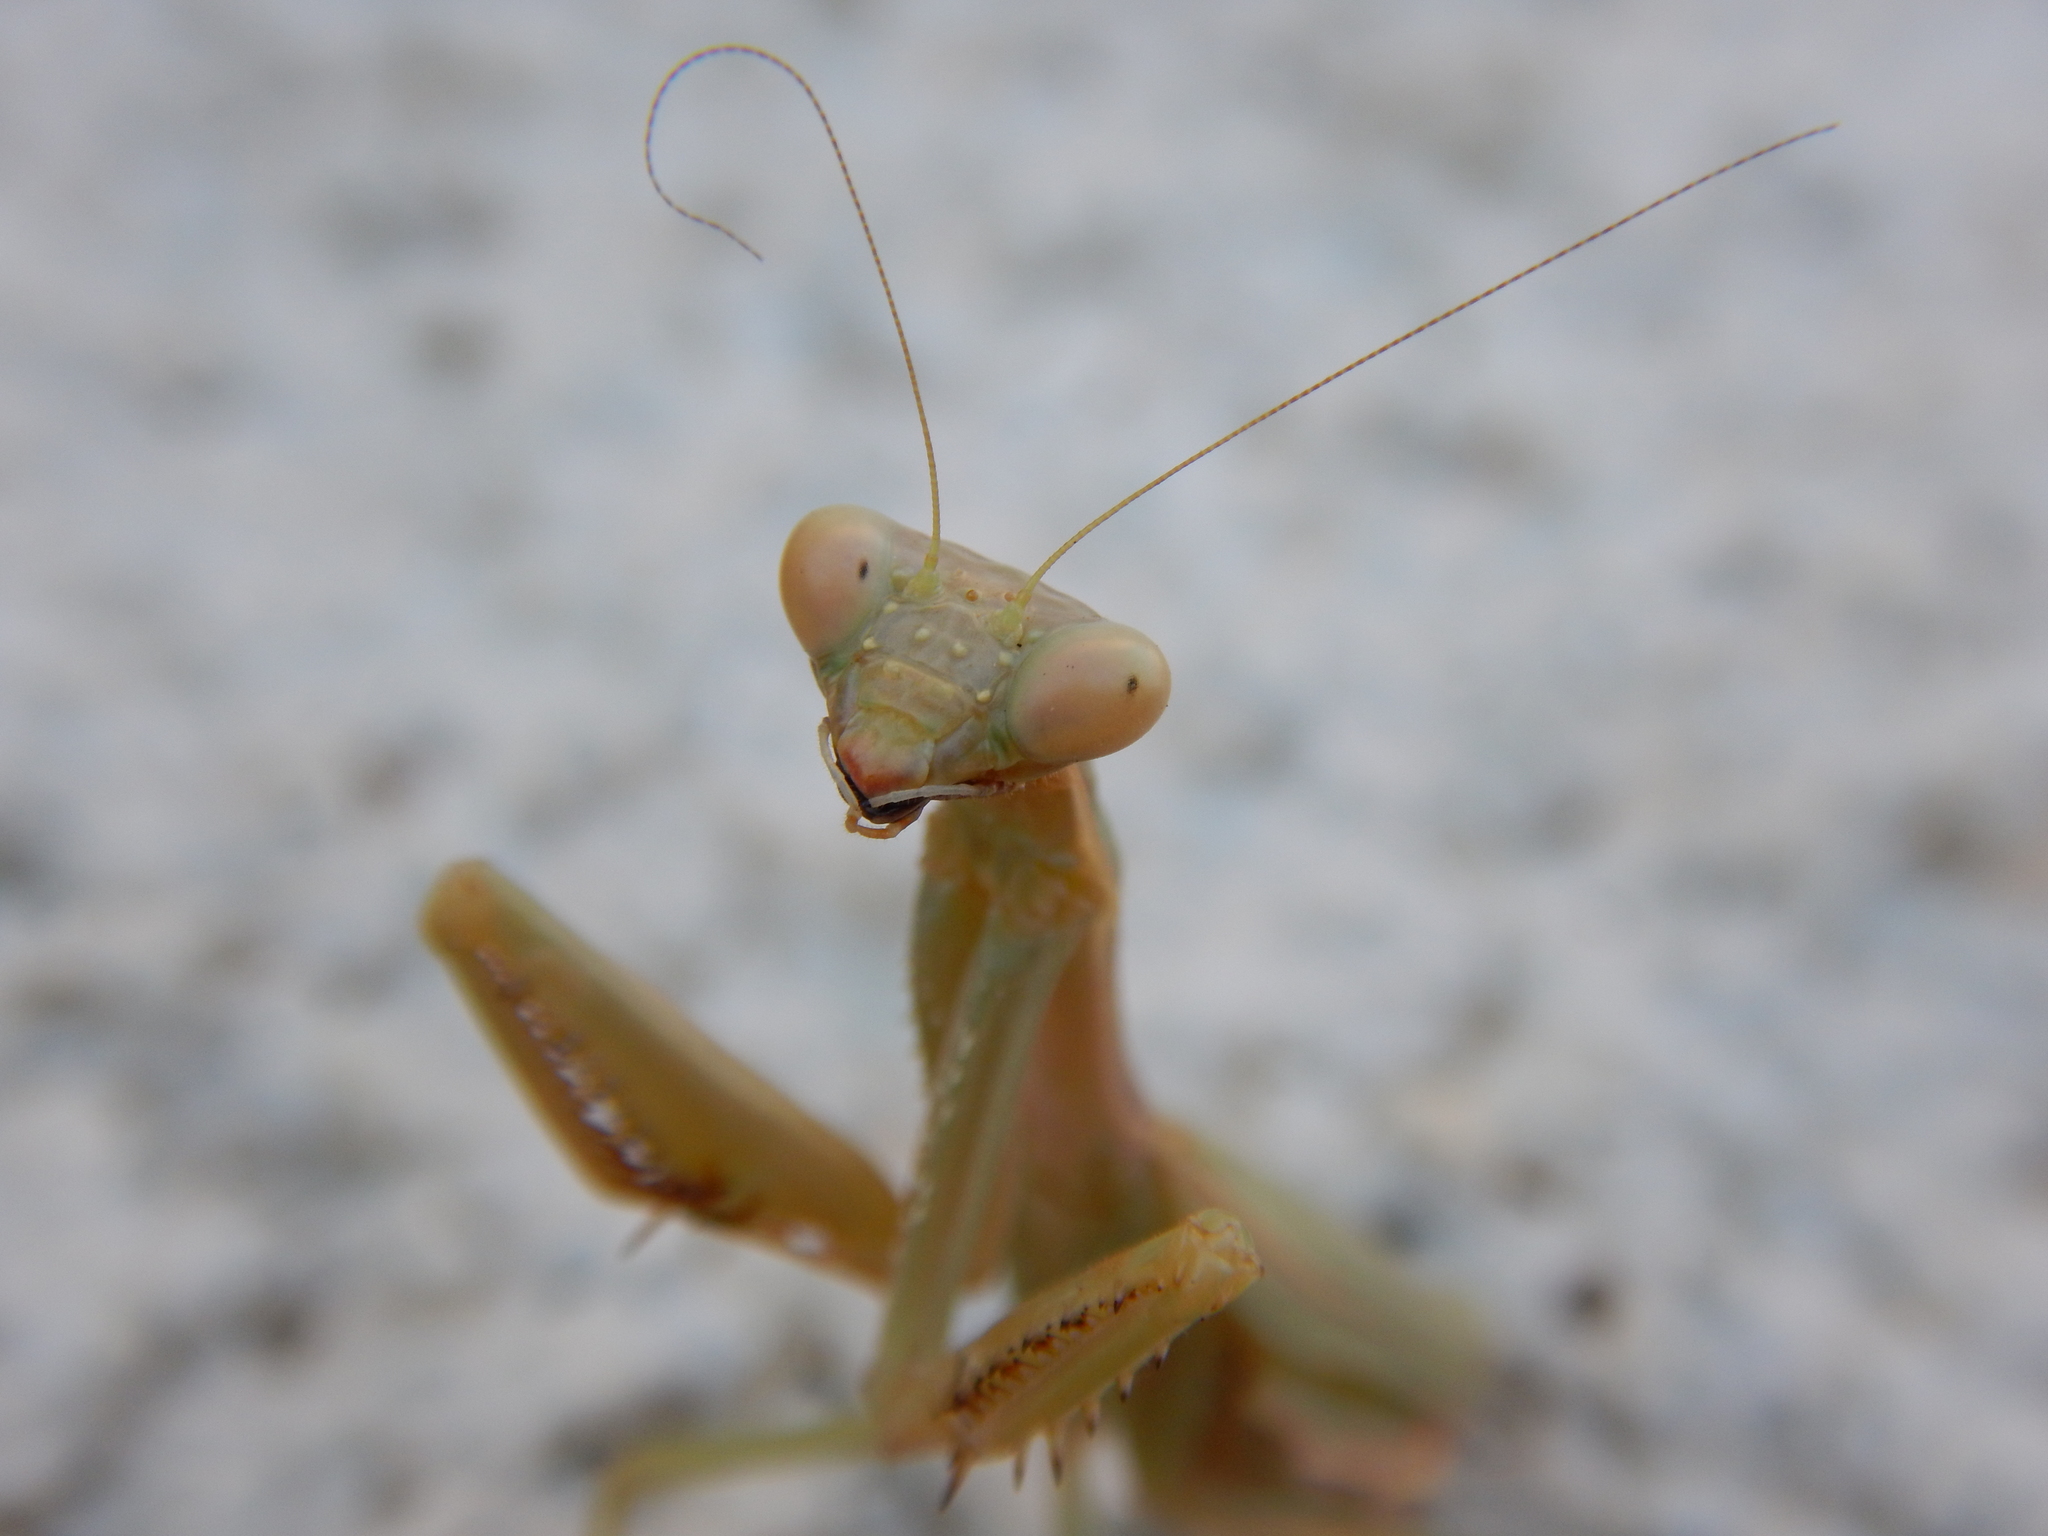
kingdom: Animalia
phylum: Arthropoda
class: Insecta
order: Mantodea
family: Eremiaphilidae
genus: Iris
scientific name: Iris oratoria
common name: Mediterranean mantis
